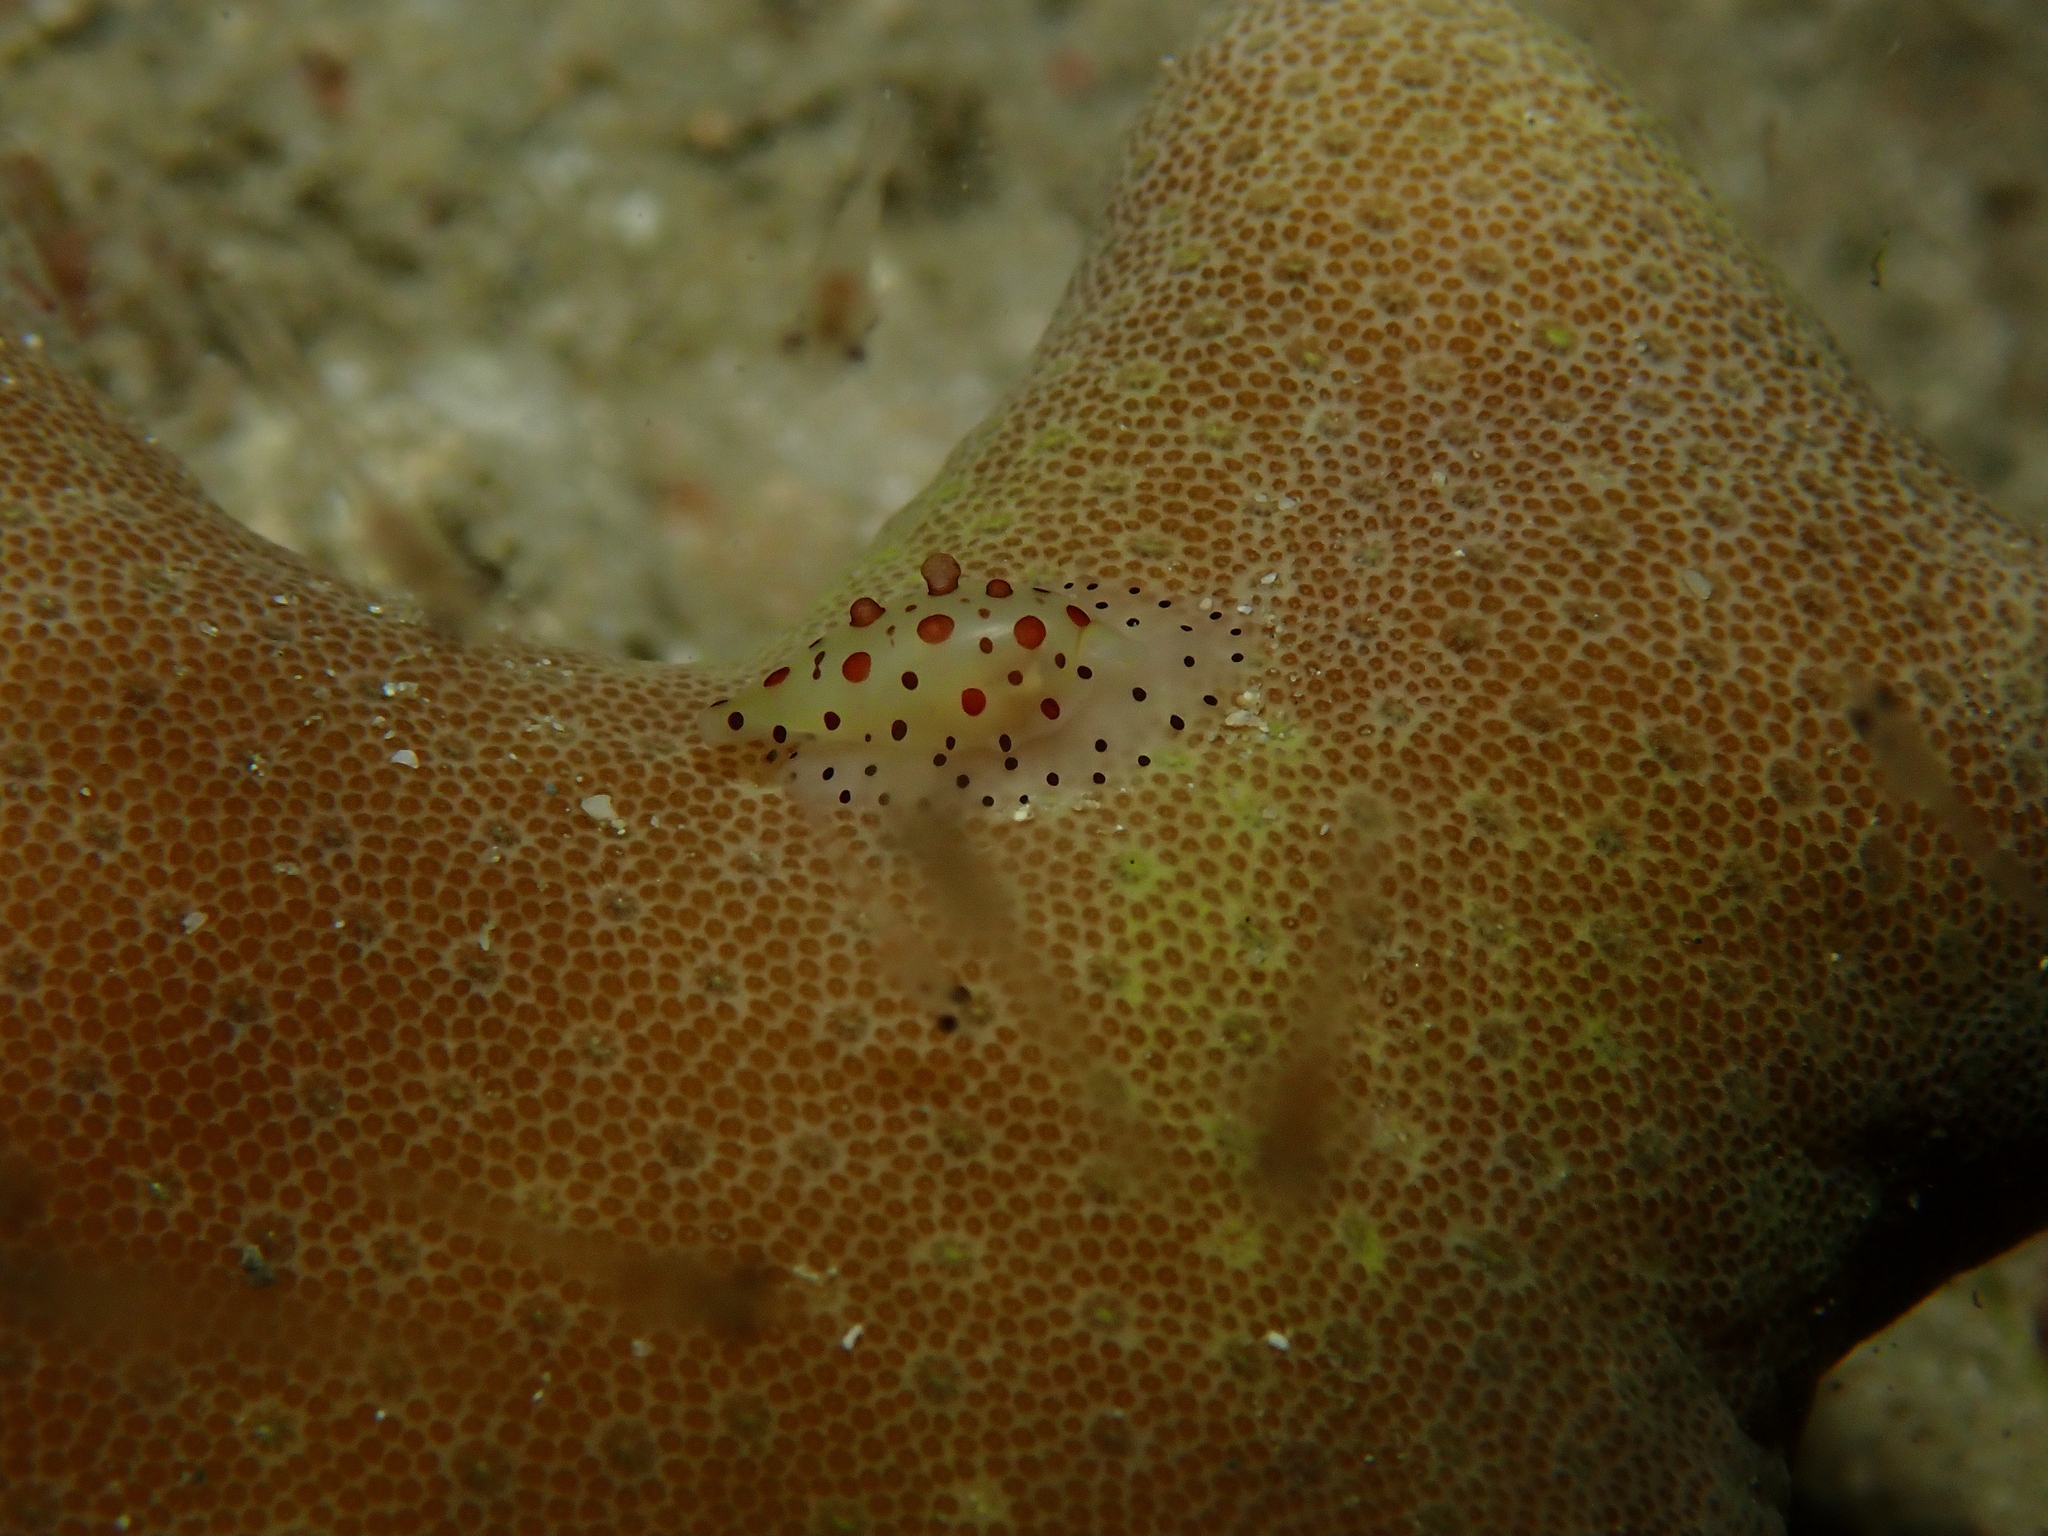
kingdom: Animalia
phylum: Mollusca
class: Gastropoda
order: Littorinimorpha
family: Ovulidae
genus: Calpurnus
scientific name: Calpurnus verrucosus
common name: Common calpurnus
